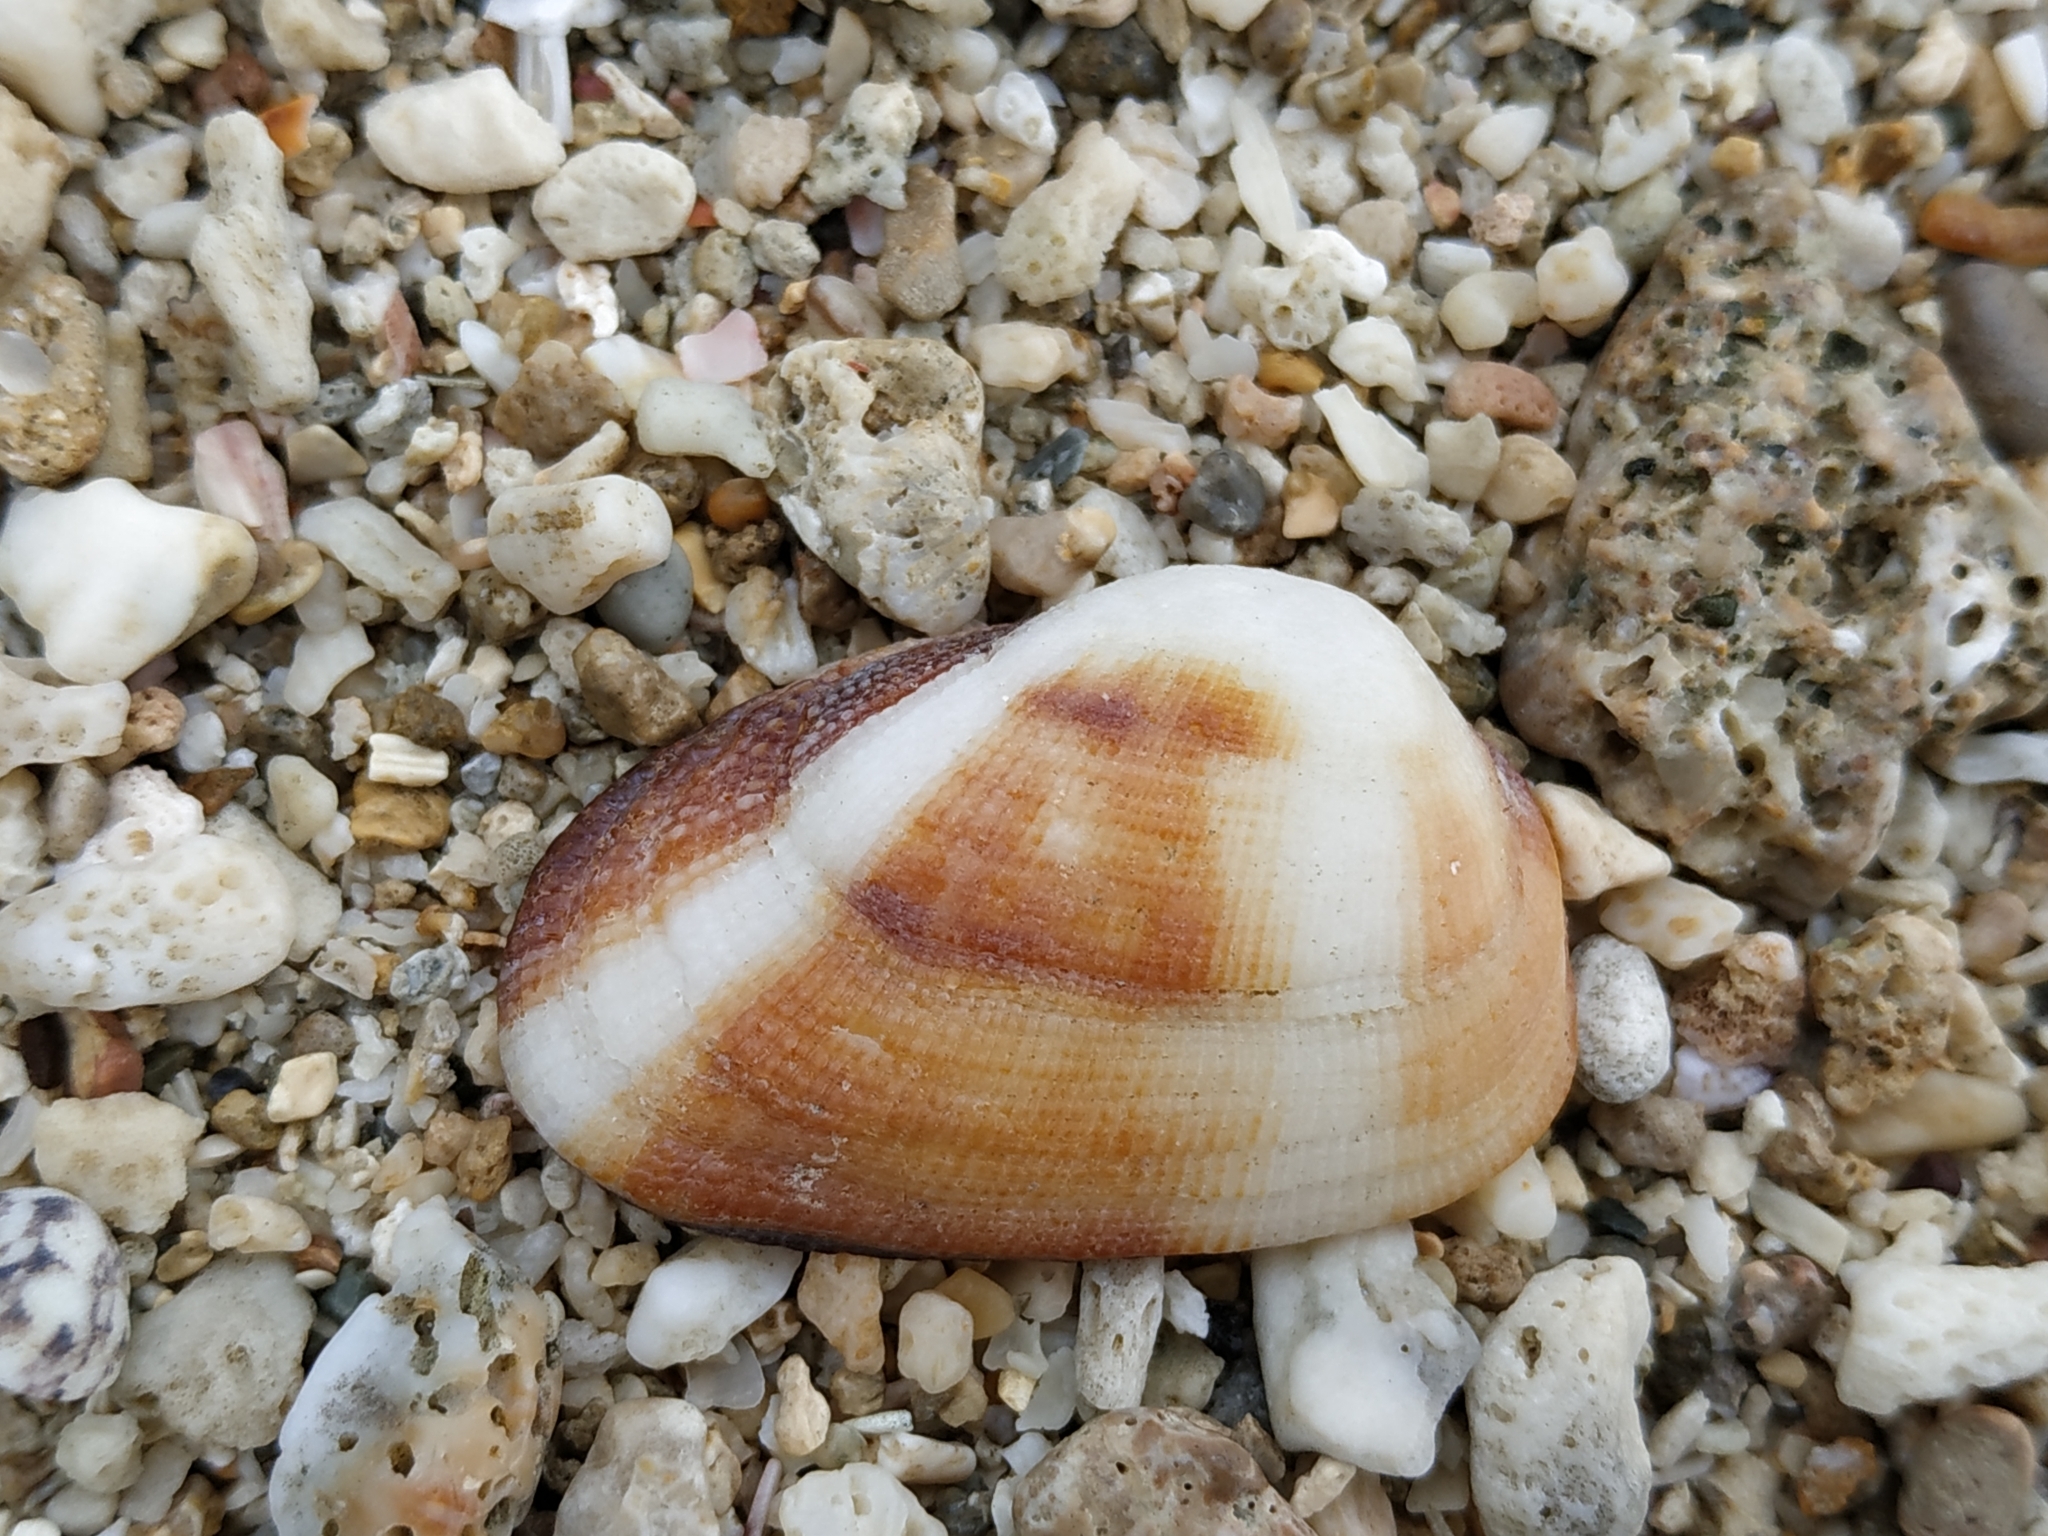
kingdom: Animalia
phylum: Mollusca
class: Bivalvia
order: Arcida
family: Arcidae
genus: Barbatia
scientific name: Barbatia amygdalumtostum
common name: Burnt-almond ark
